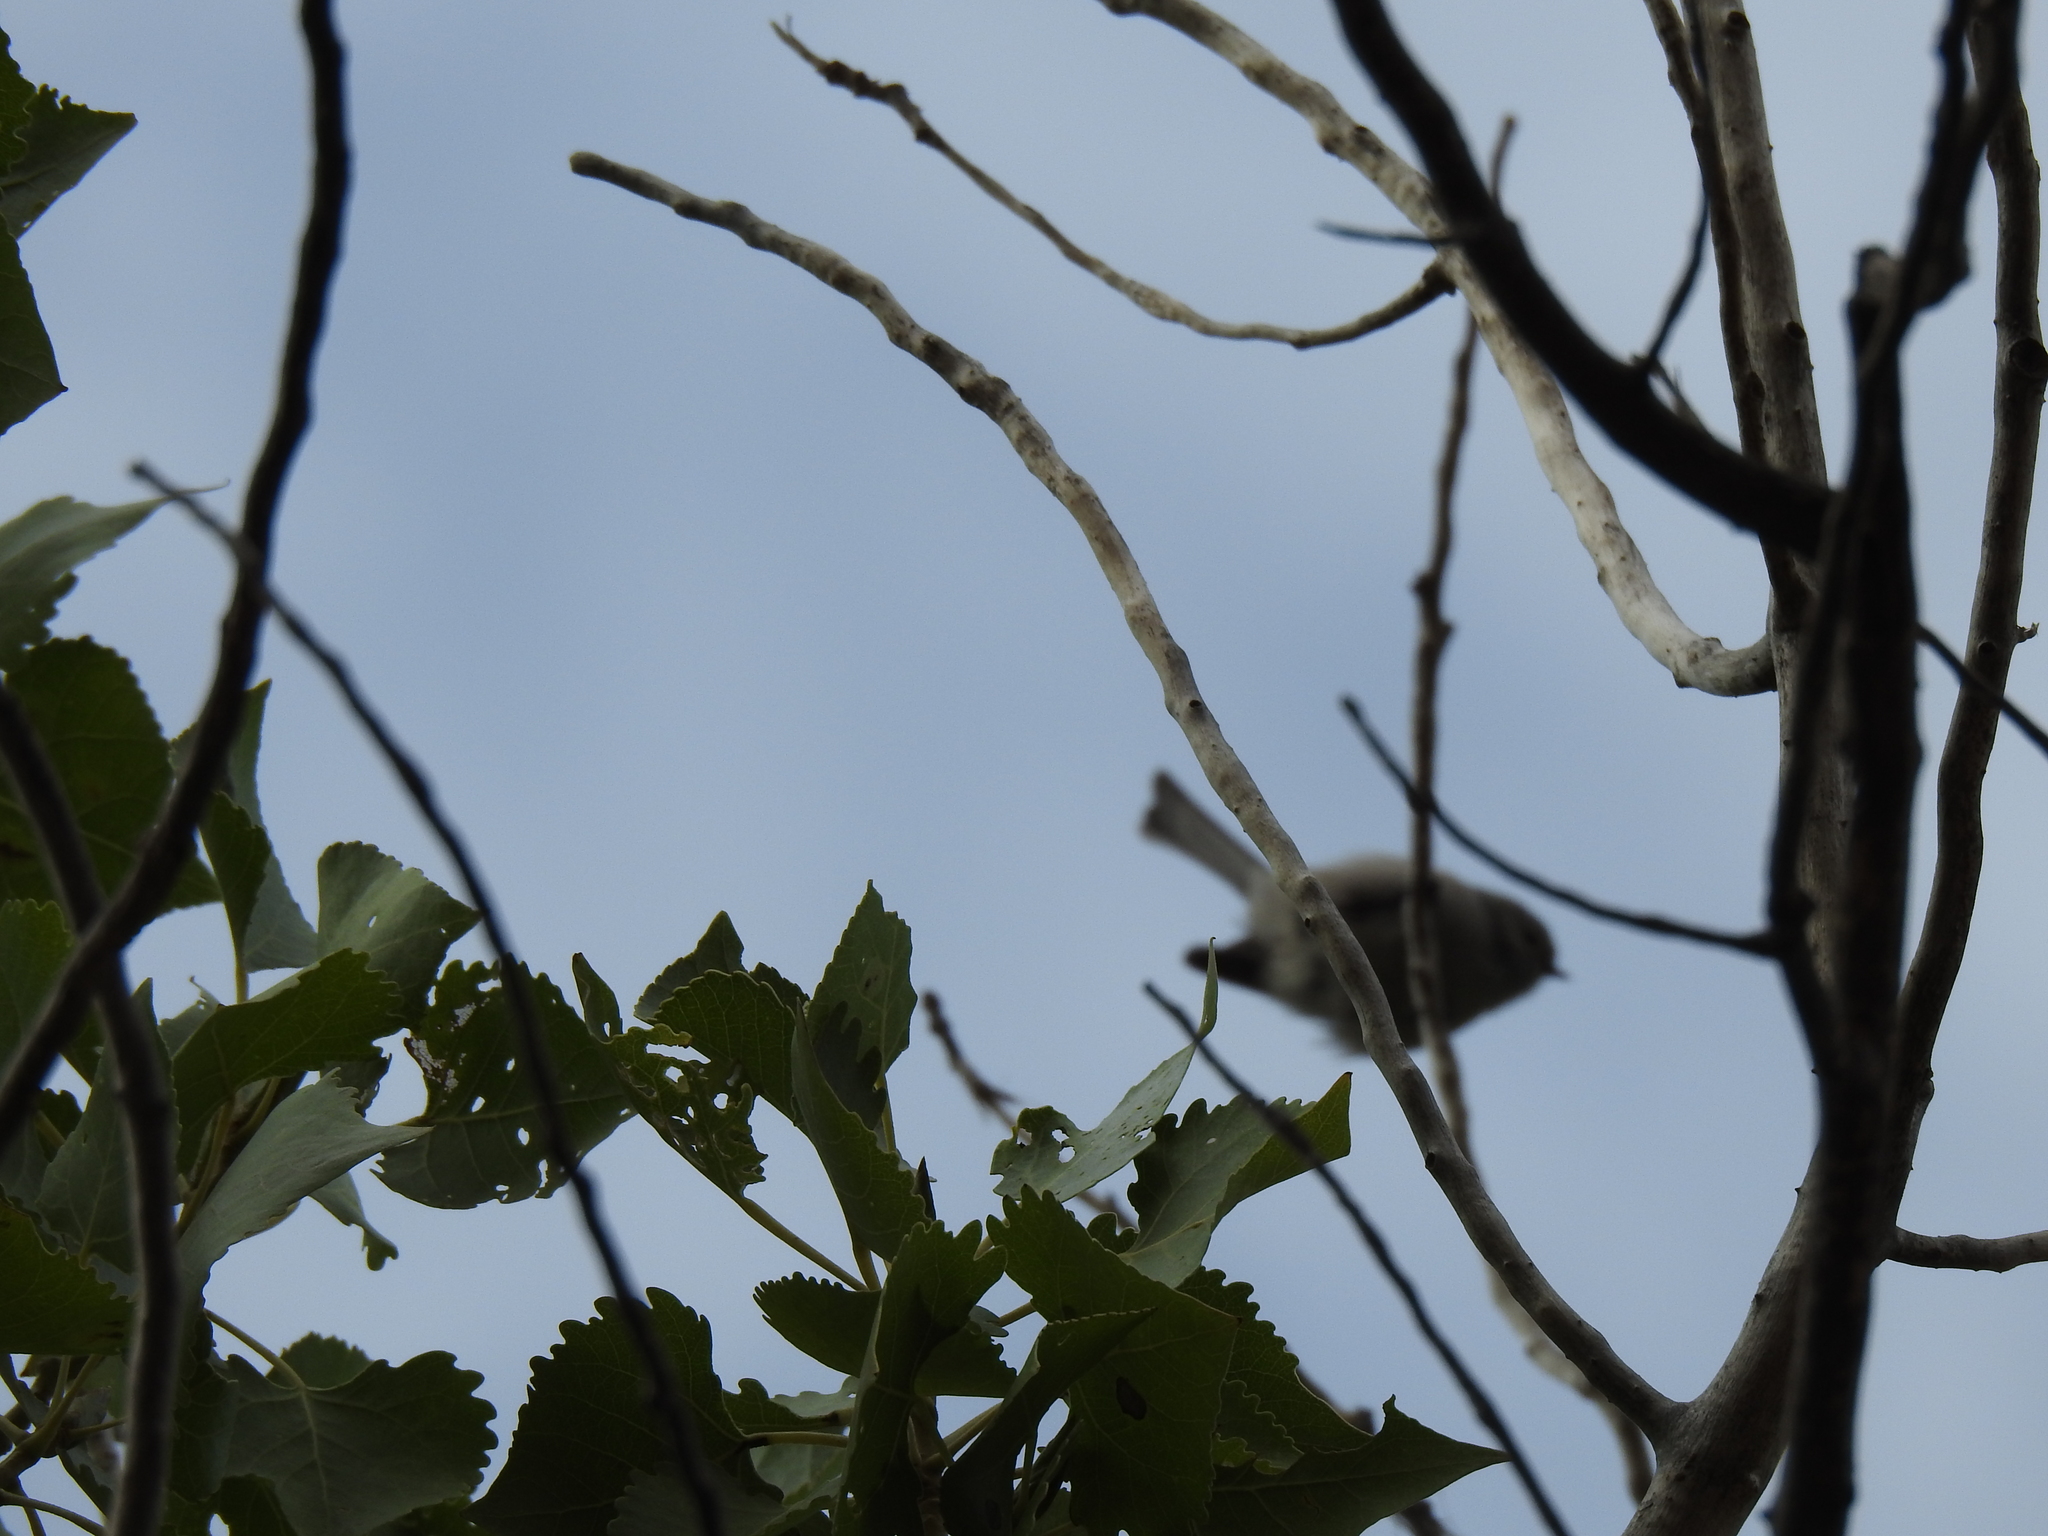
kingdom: Animalia
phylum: Chordata
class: Aves
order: Passeriformes
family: Aegithalidae
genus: Psaltriparus
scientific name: Psaltriparus minimus
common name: American bushtit
